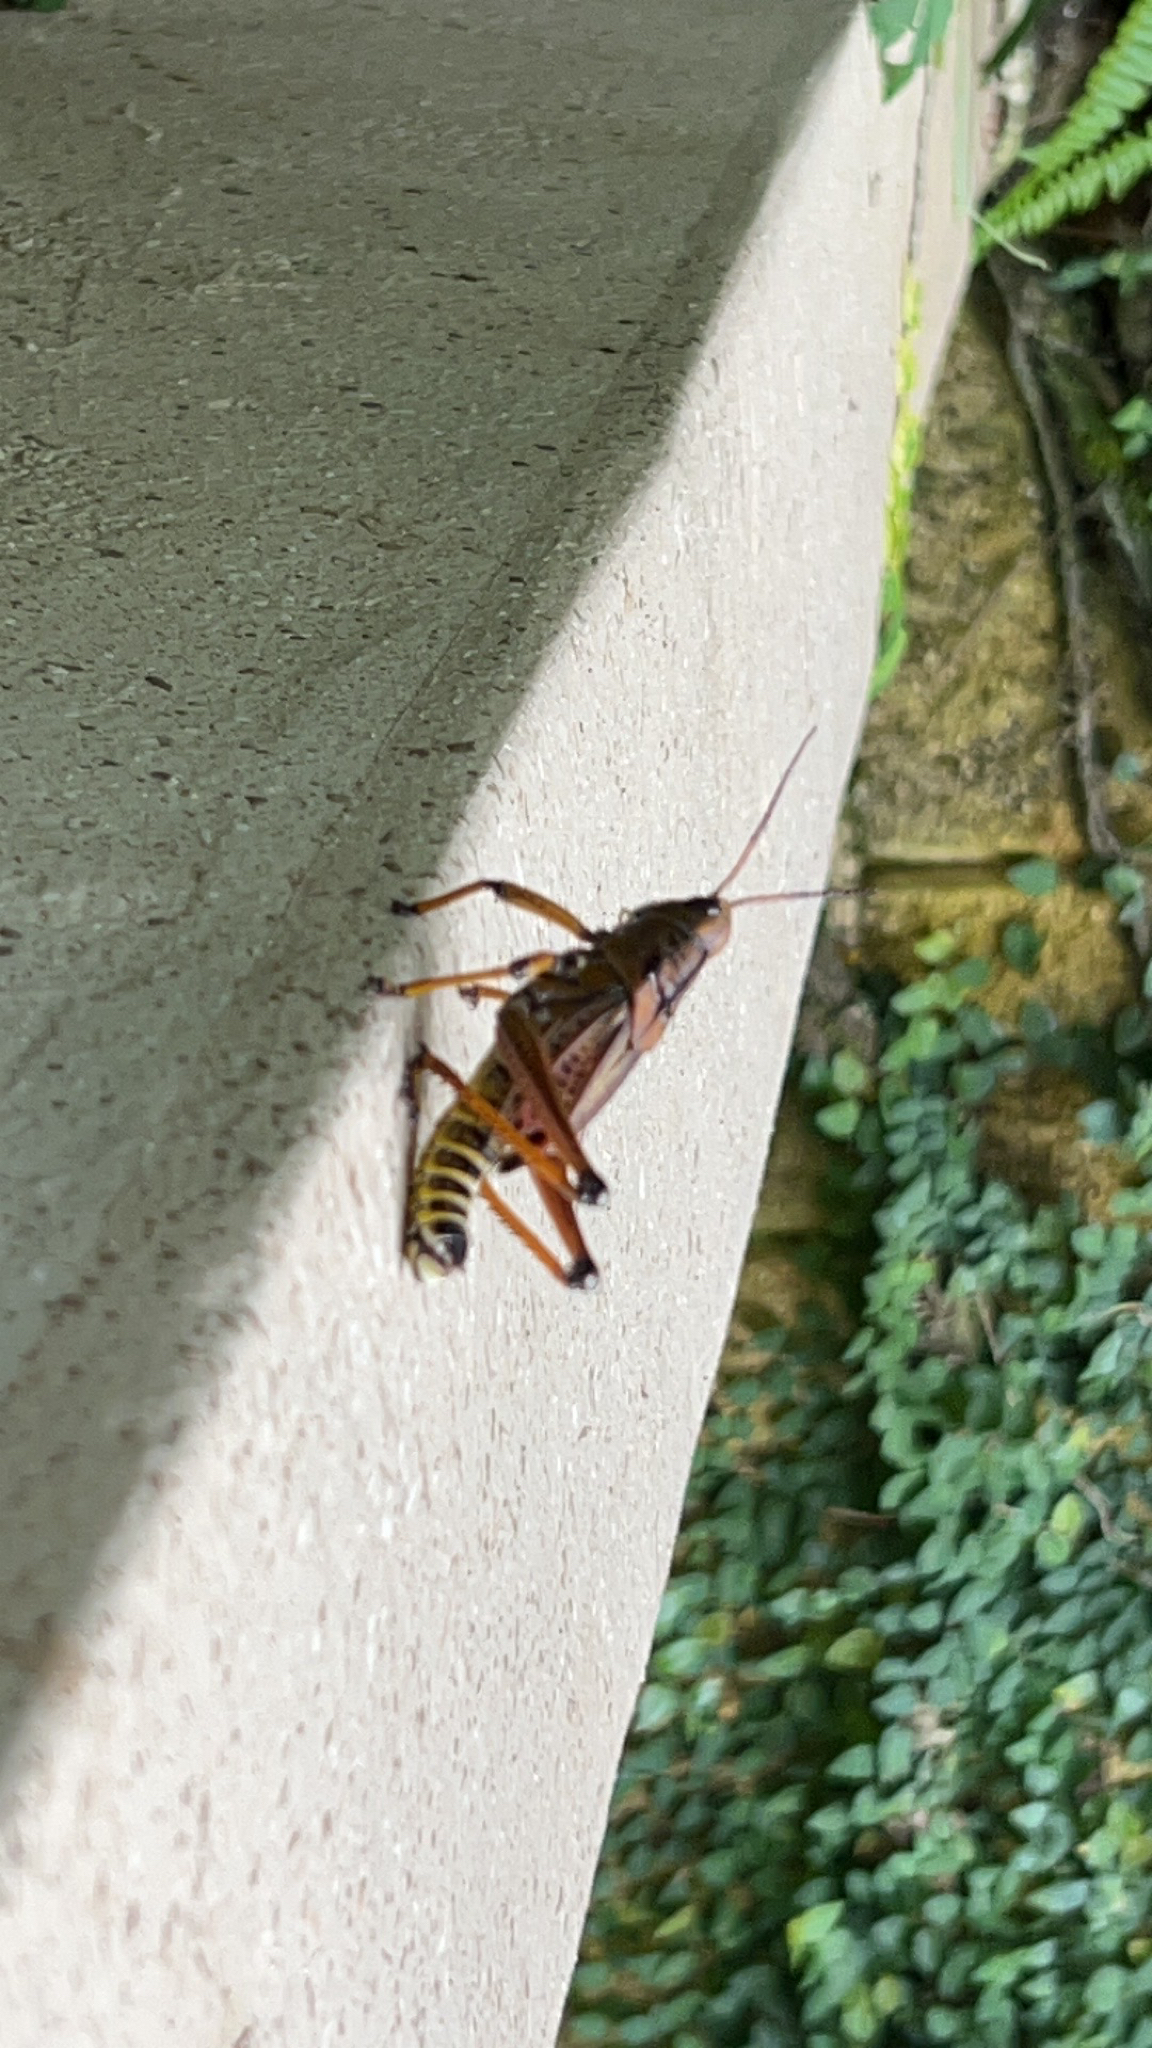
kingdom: Animalia
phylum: Arthropoda
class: Insecta
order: Orthoptera
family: Romaleidae
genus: Romalea
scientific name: Romalea microptera
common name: Eastern lubber grasshopper
